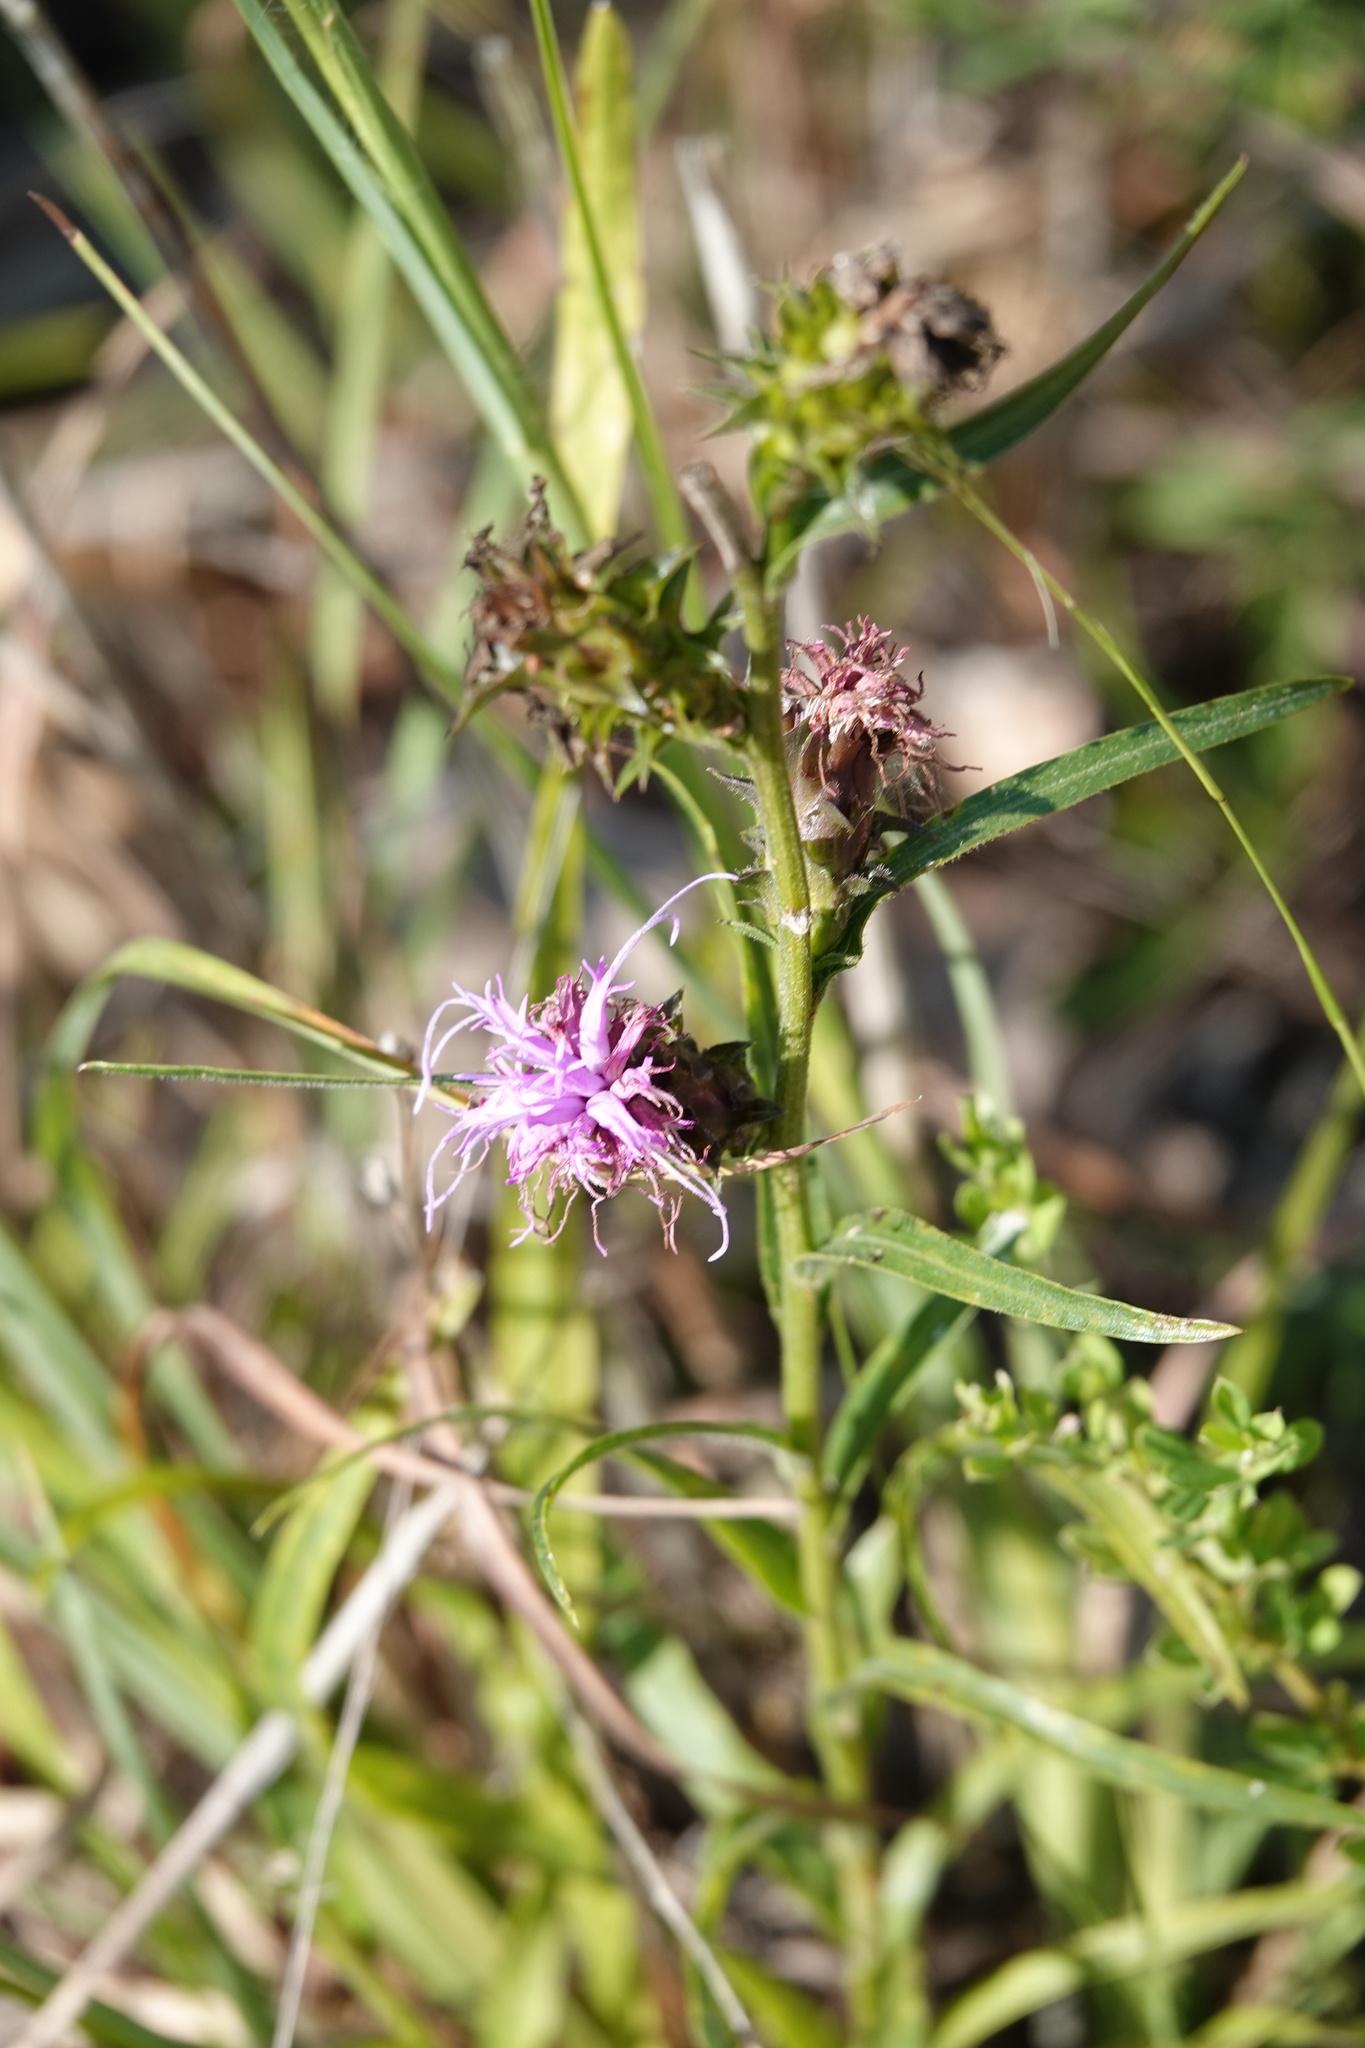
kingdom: Plantae
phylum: Tracheophyta
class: Magnoliopsida
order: Asterales
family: Asteraceae
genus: Liatris
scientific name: Liatris squarrosa
